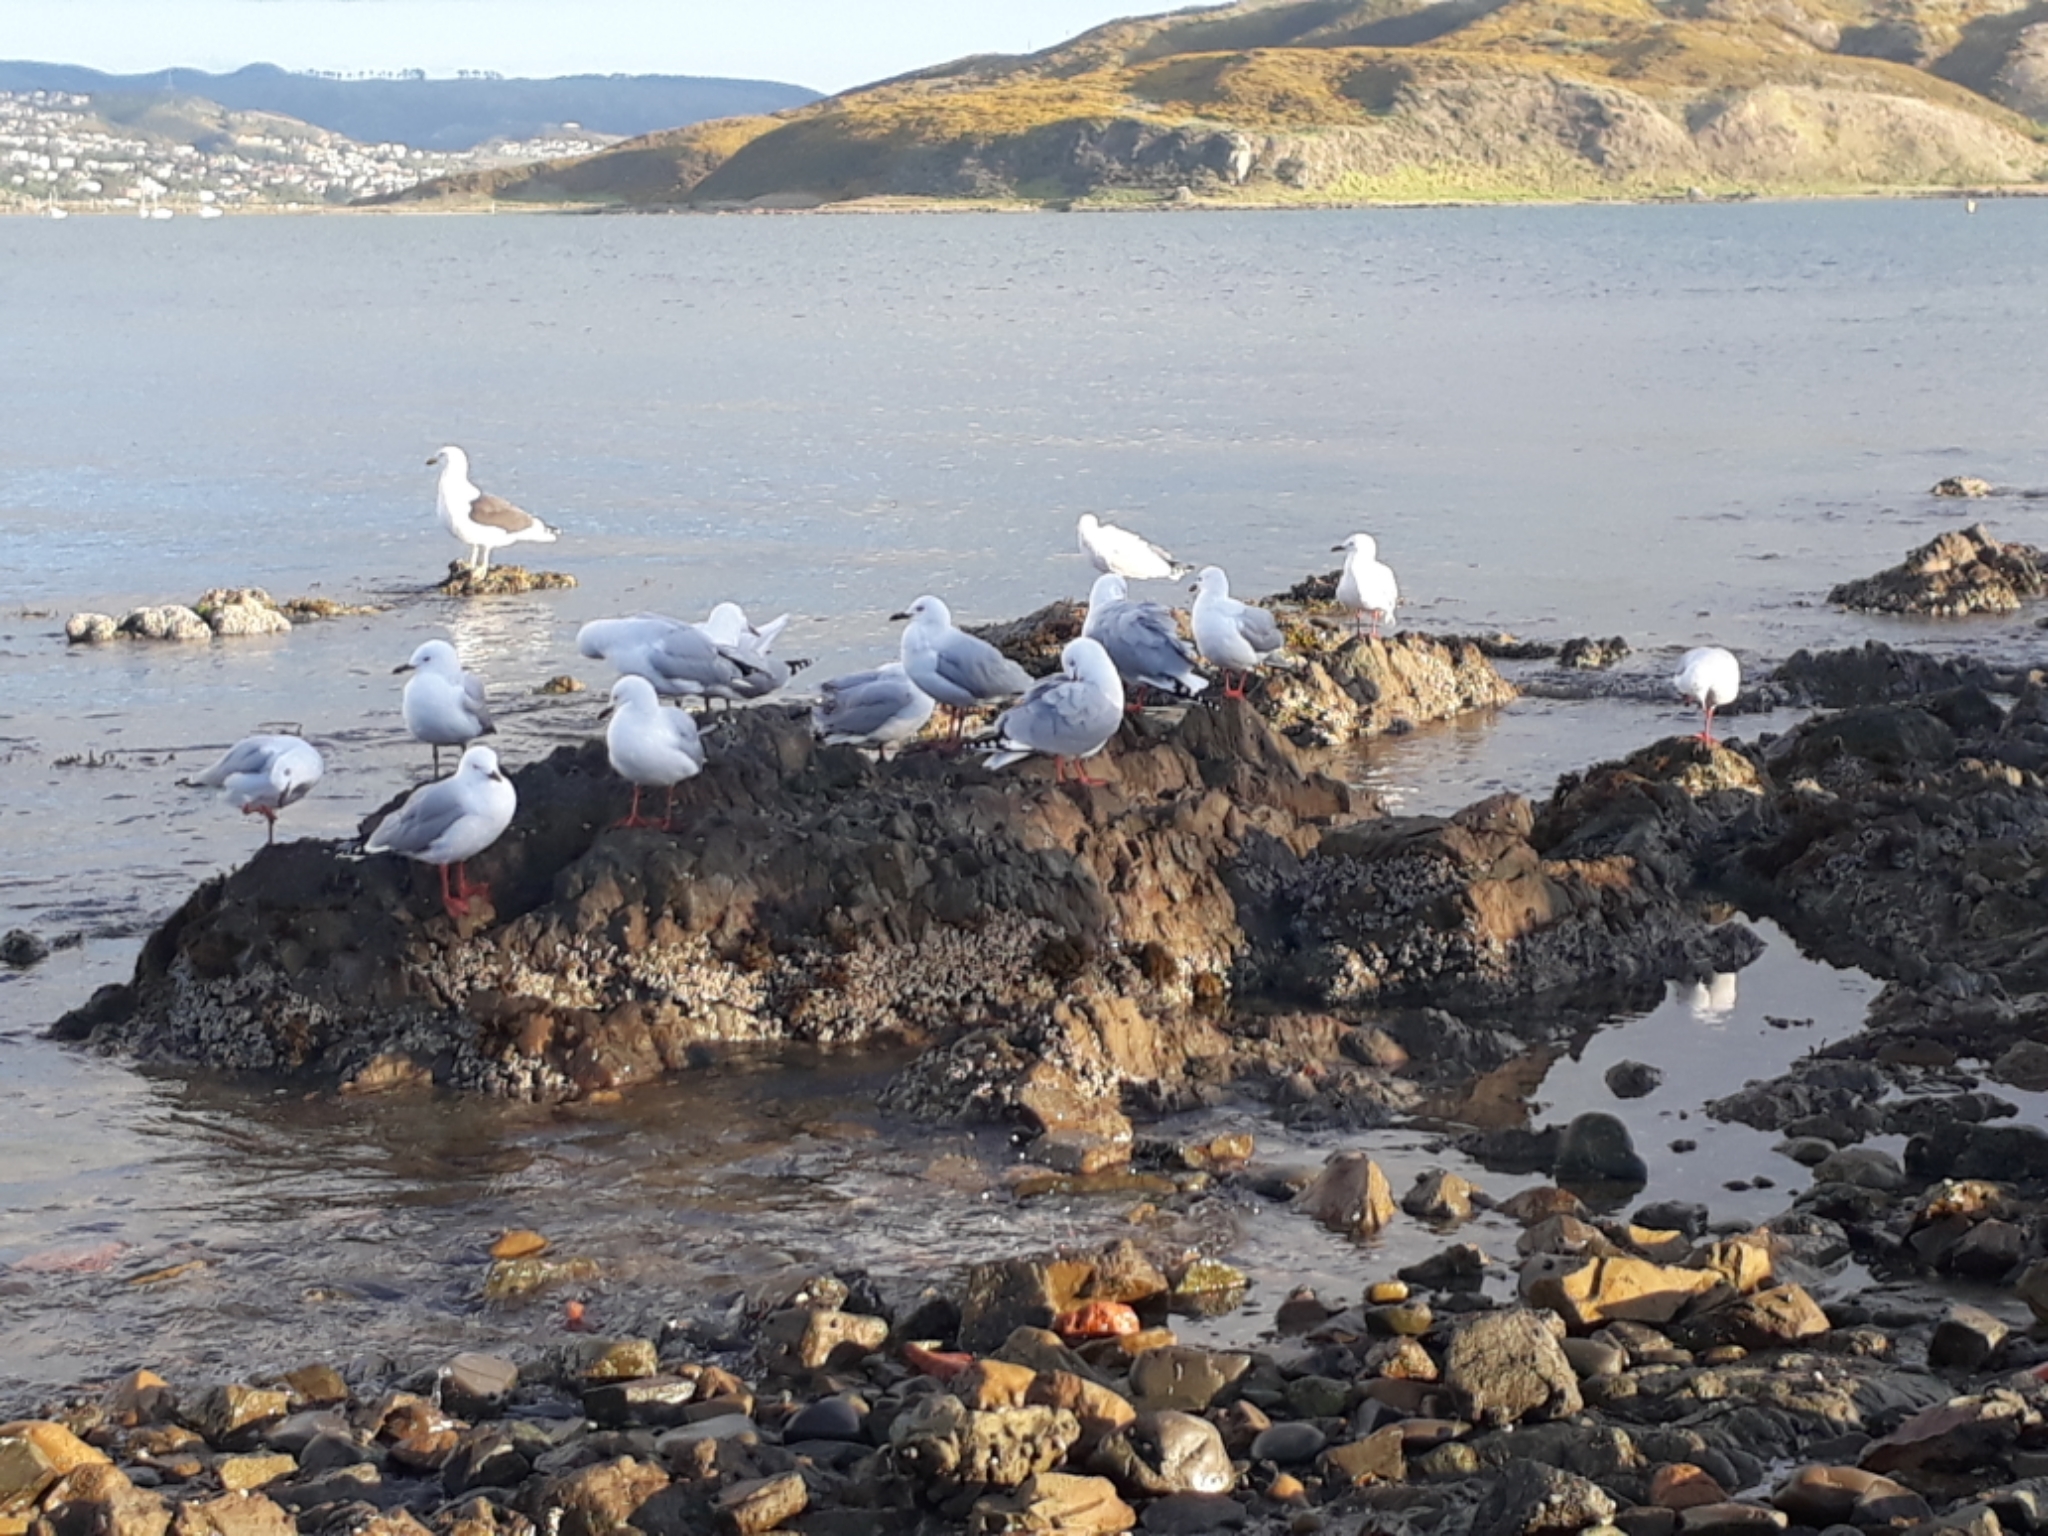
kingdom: Animalia
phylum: Chordata
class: Aves
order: Charadriiformes
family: Laridae
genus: Chroicocephalus
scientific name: Chroicocephalus novaehollandiae
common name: Silver gull
